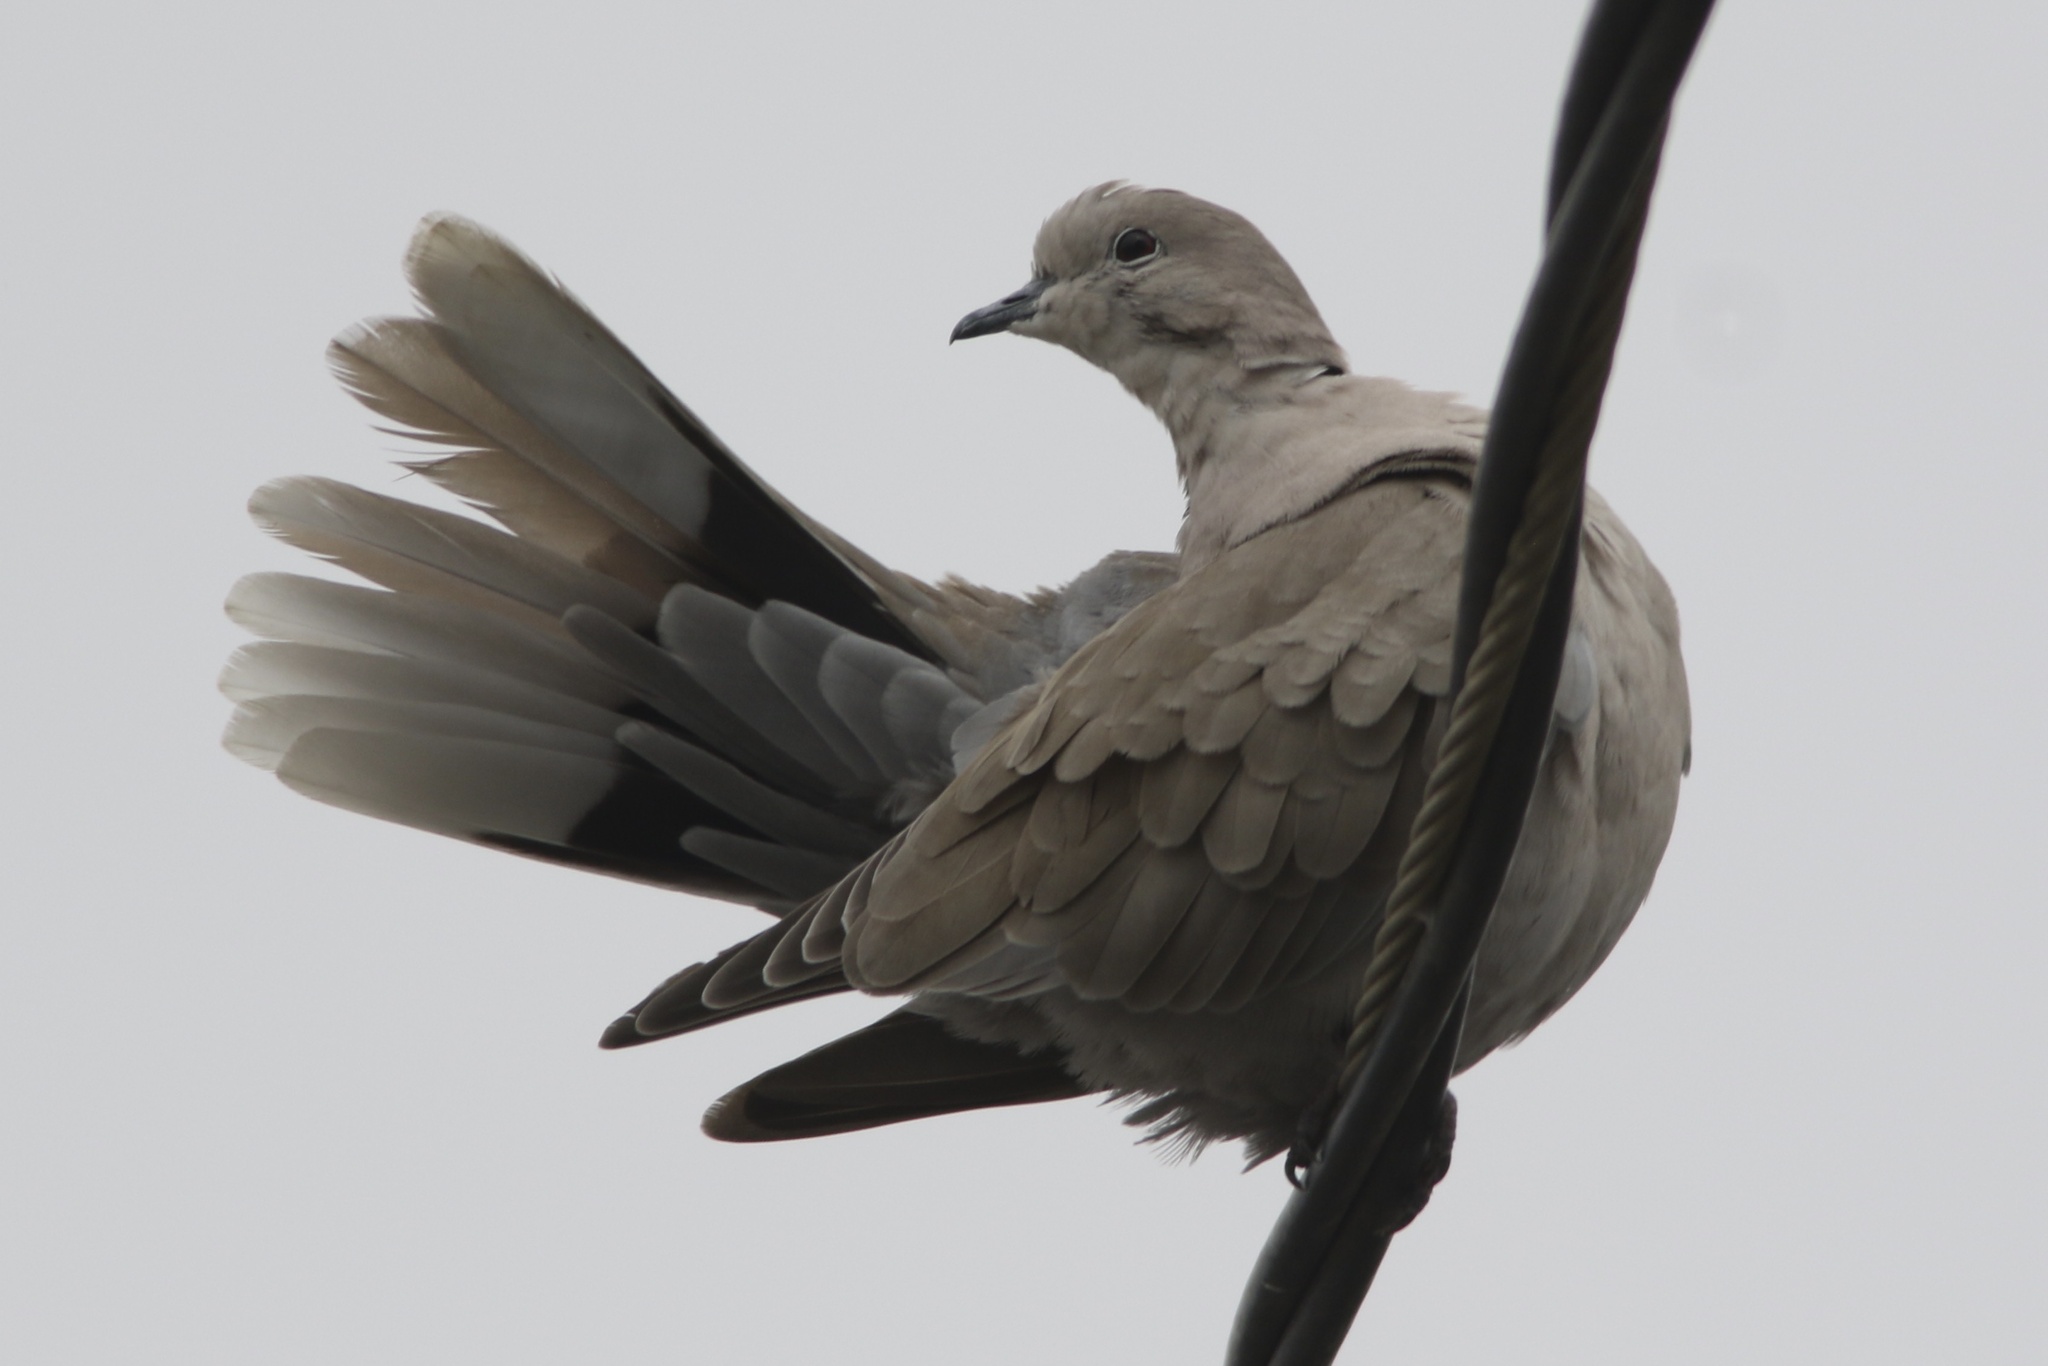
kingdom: Animalia
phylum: Chordata
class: Aves
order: Columbiformes
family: Columbidae
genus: Streptopelia
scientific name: Streptopelia decaocto
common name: Eurasian collared dove
